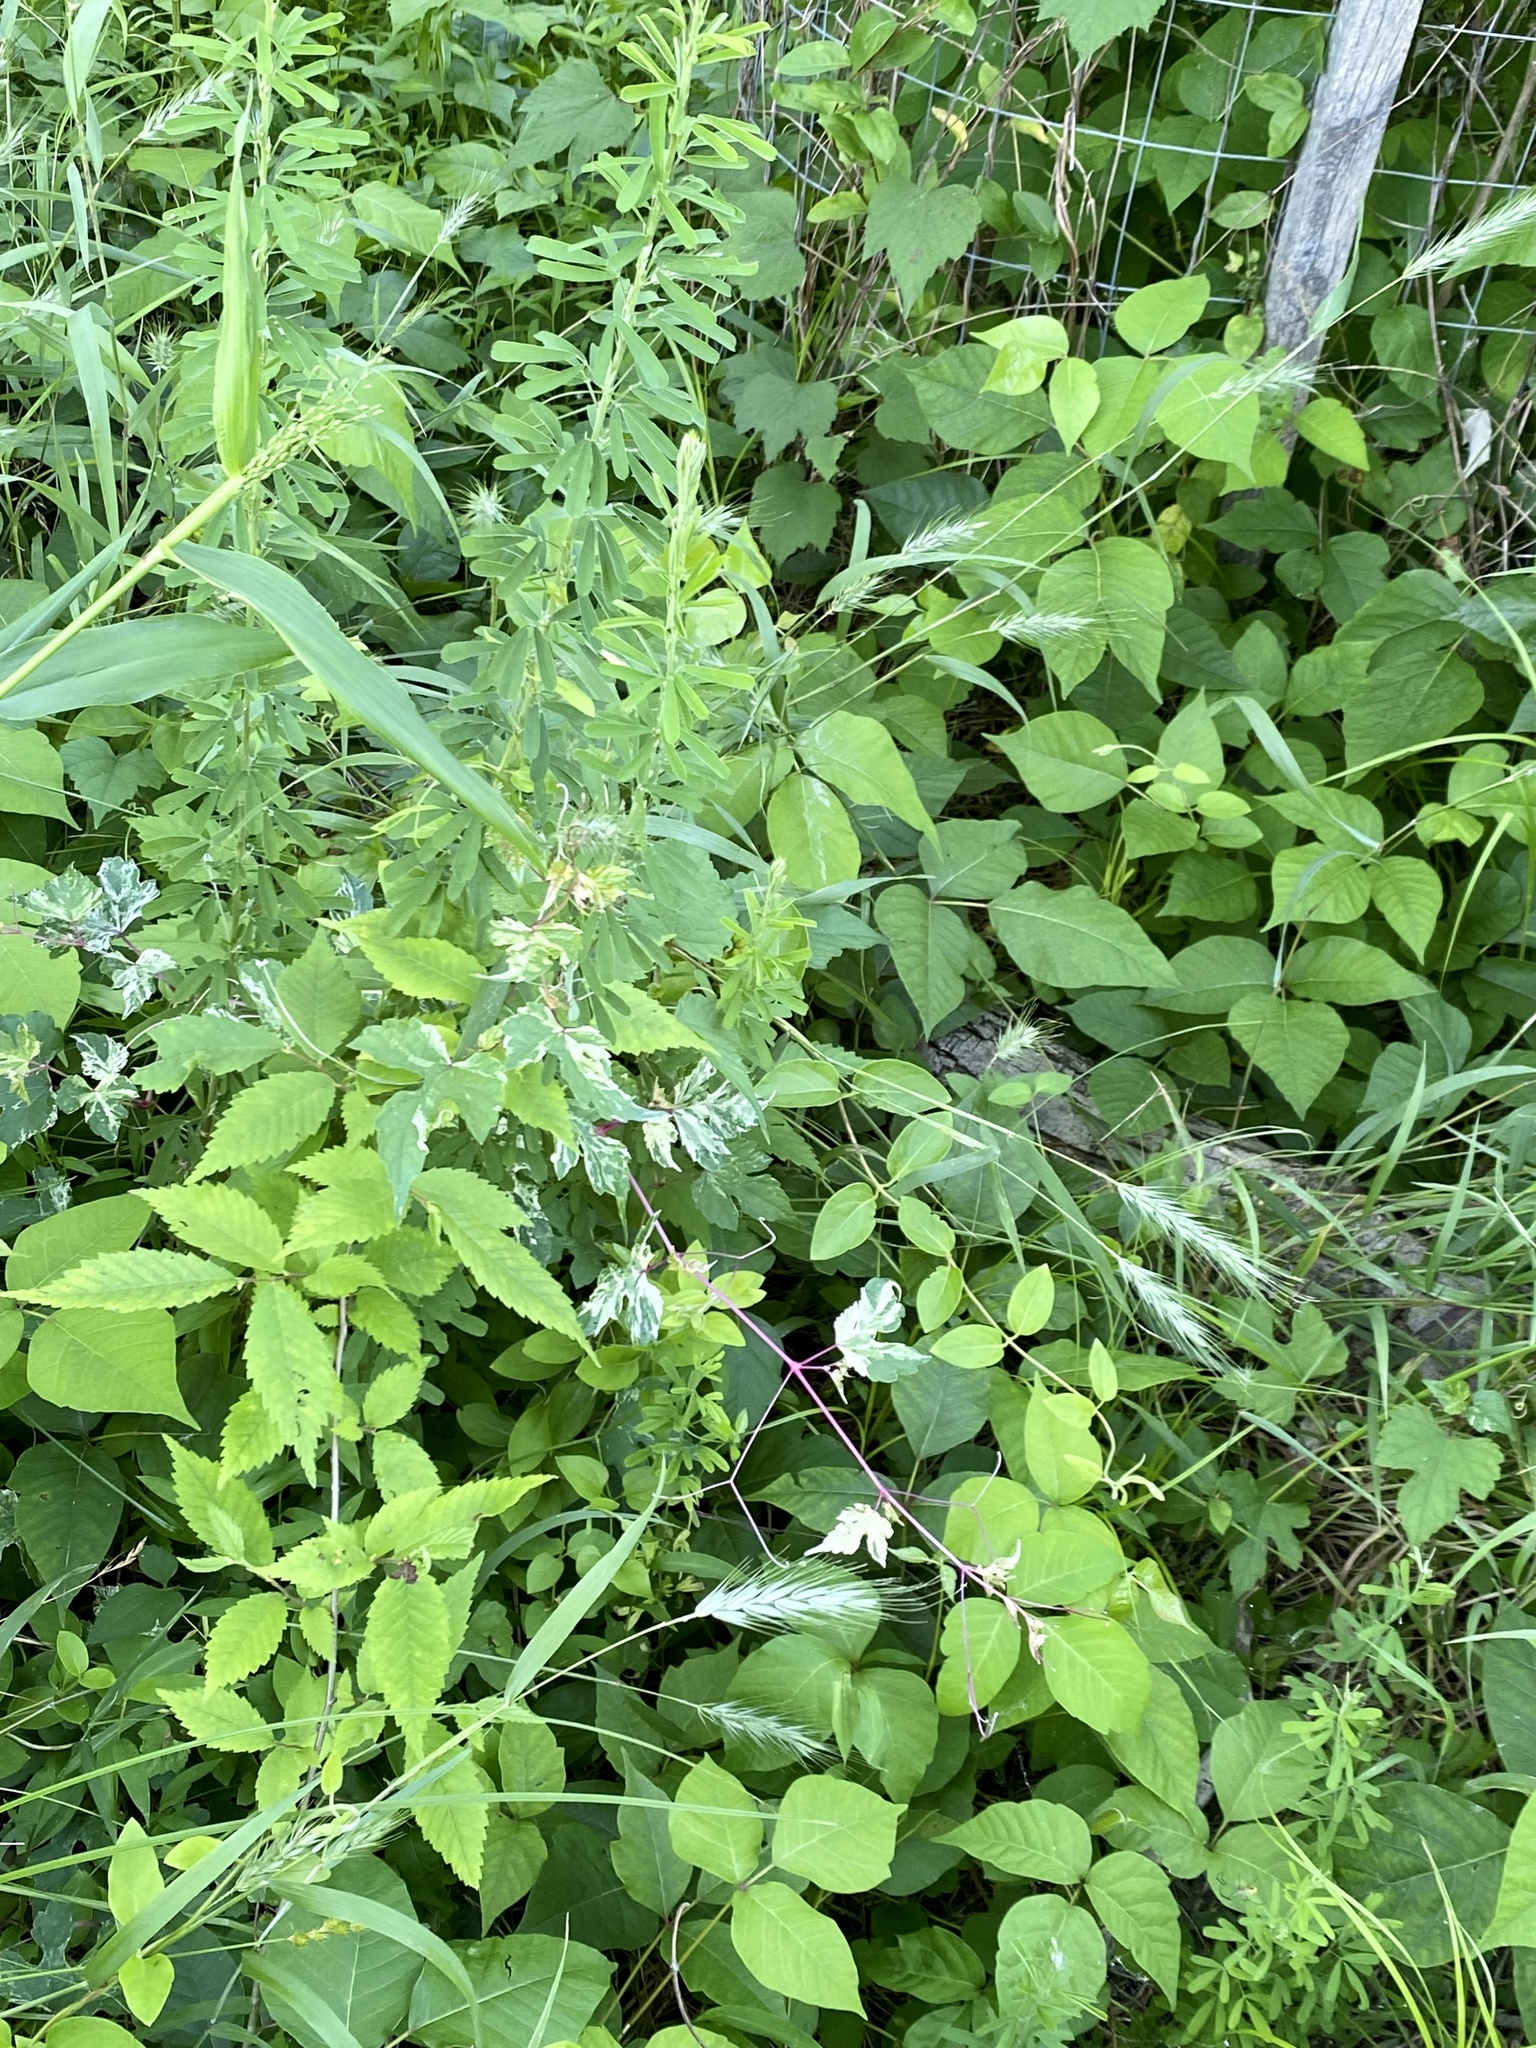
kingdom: Plantae
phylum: Tracheophyta
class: Magnoliopsida
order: Vitales
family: Vitaceae
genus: Ampelopsis
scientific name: Ampelopsis glandulosa
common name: Amur peppervine
